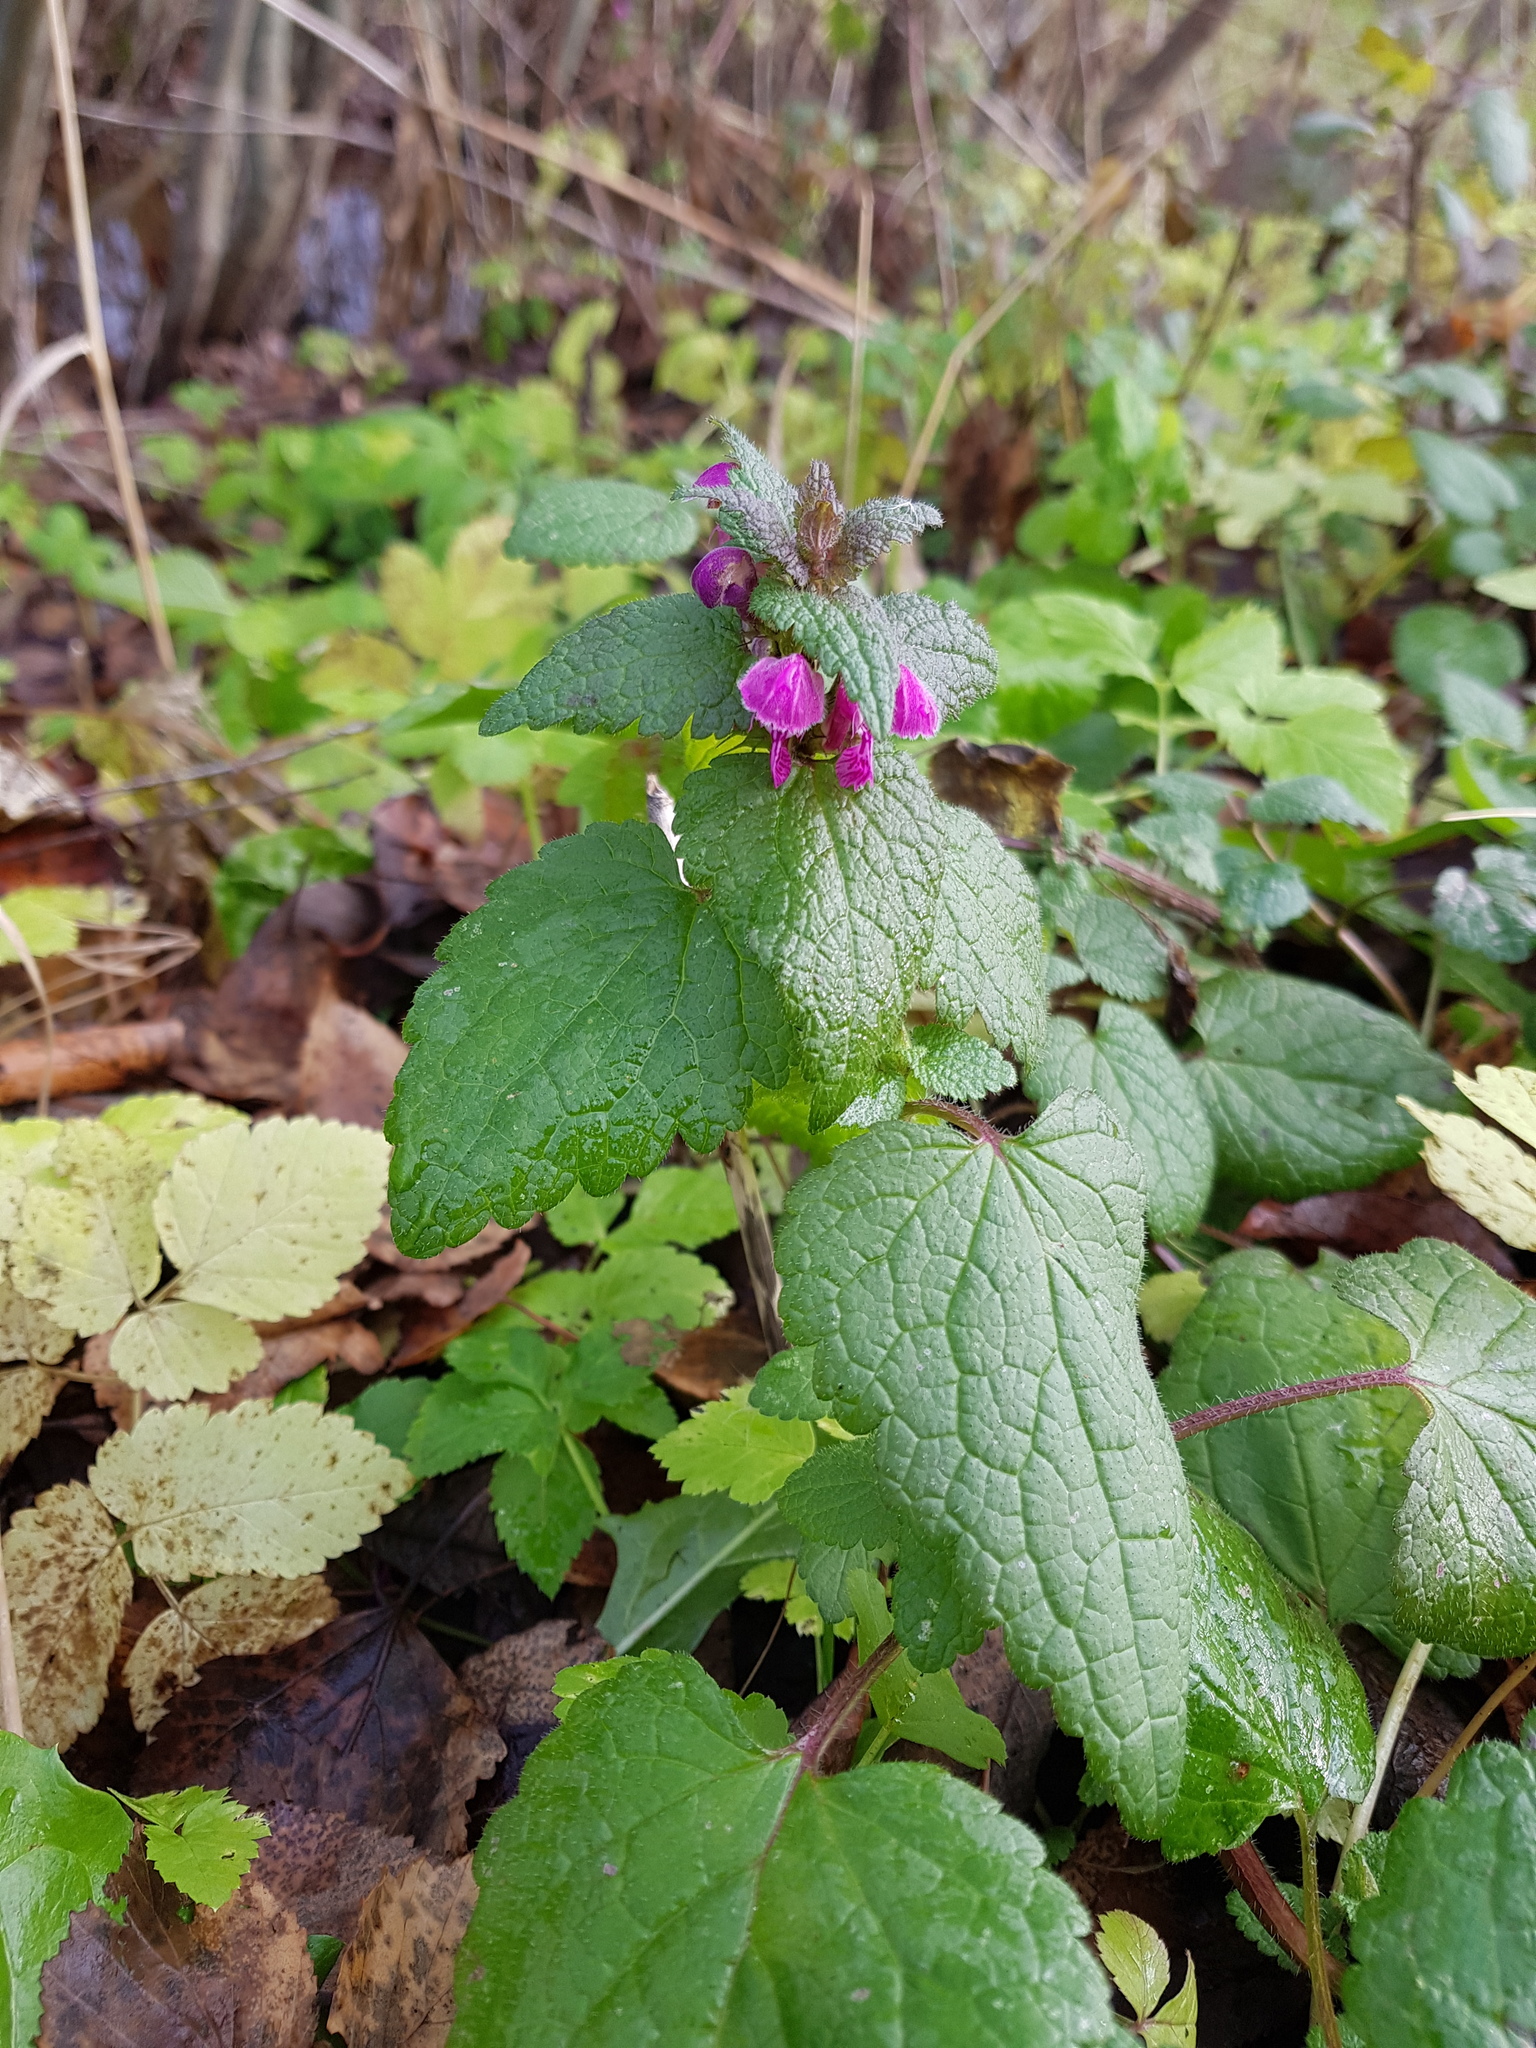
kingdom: Plantae
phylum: Tracheophyta
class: Magnoliopsida
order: Lamiales
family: Lamiaceae
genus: Lamium
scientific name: Lamium maculatum
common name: Spotted dead-nettle
